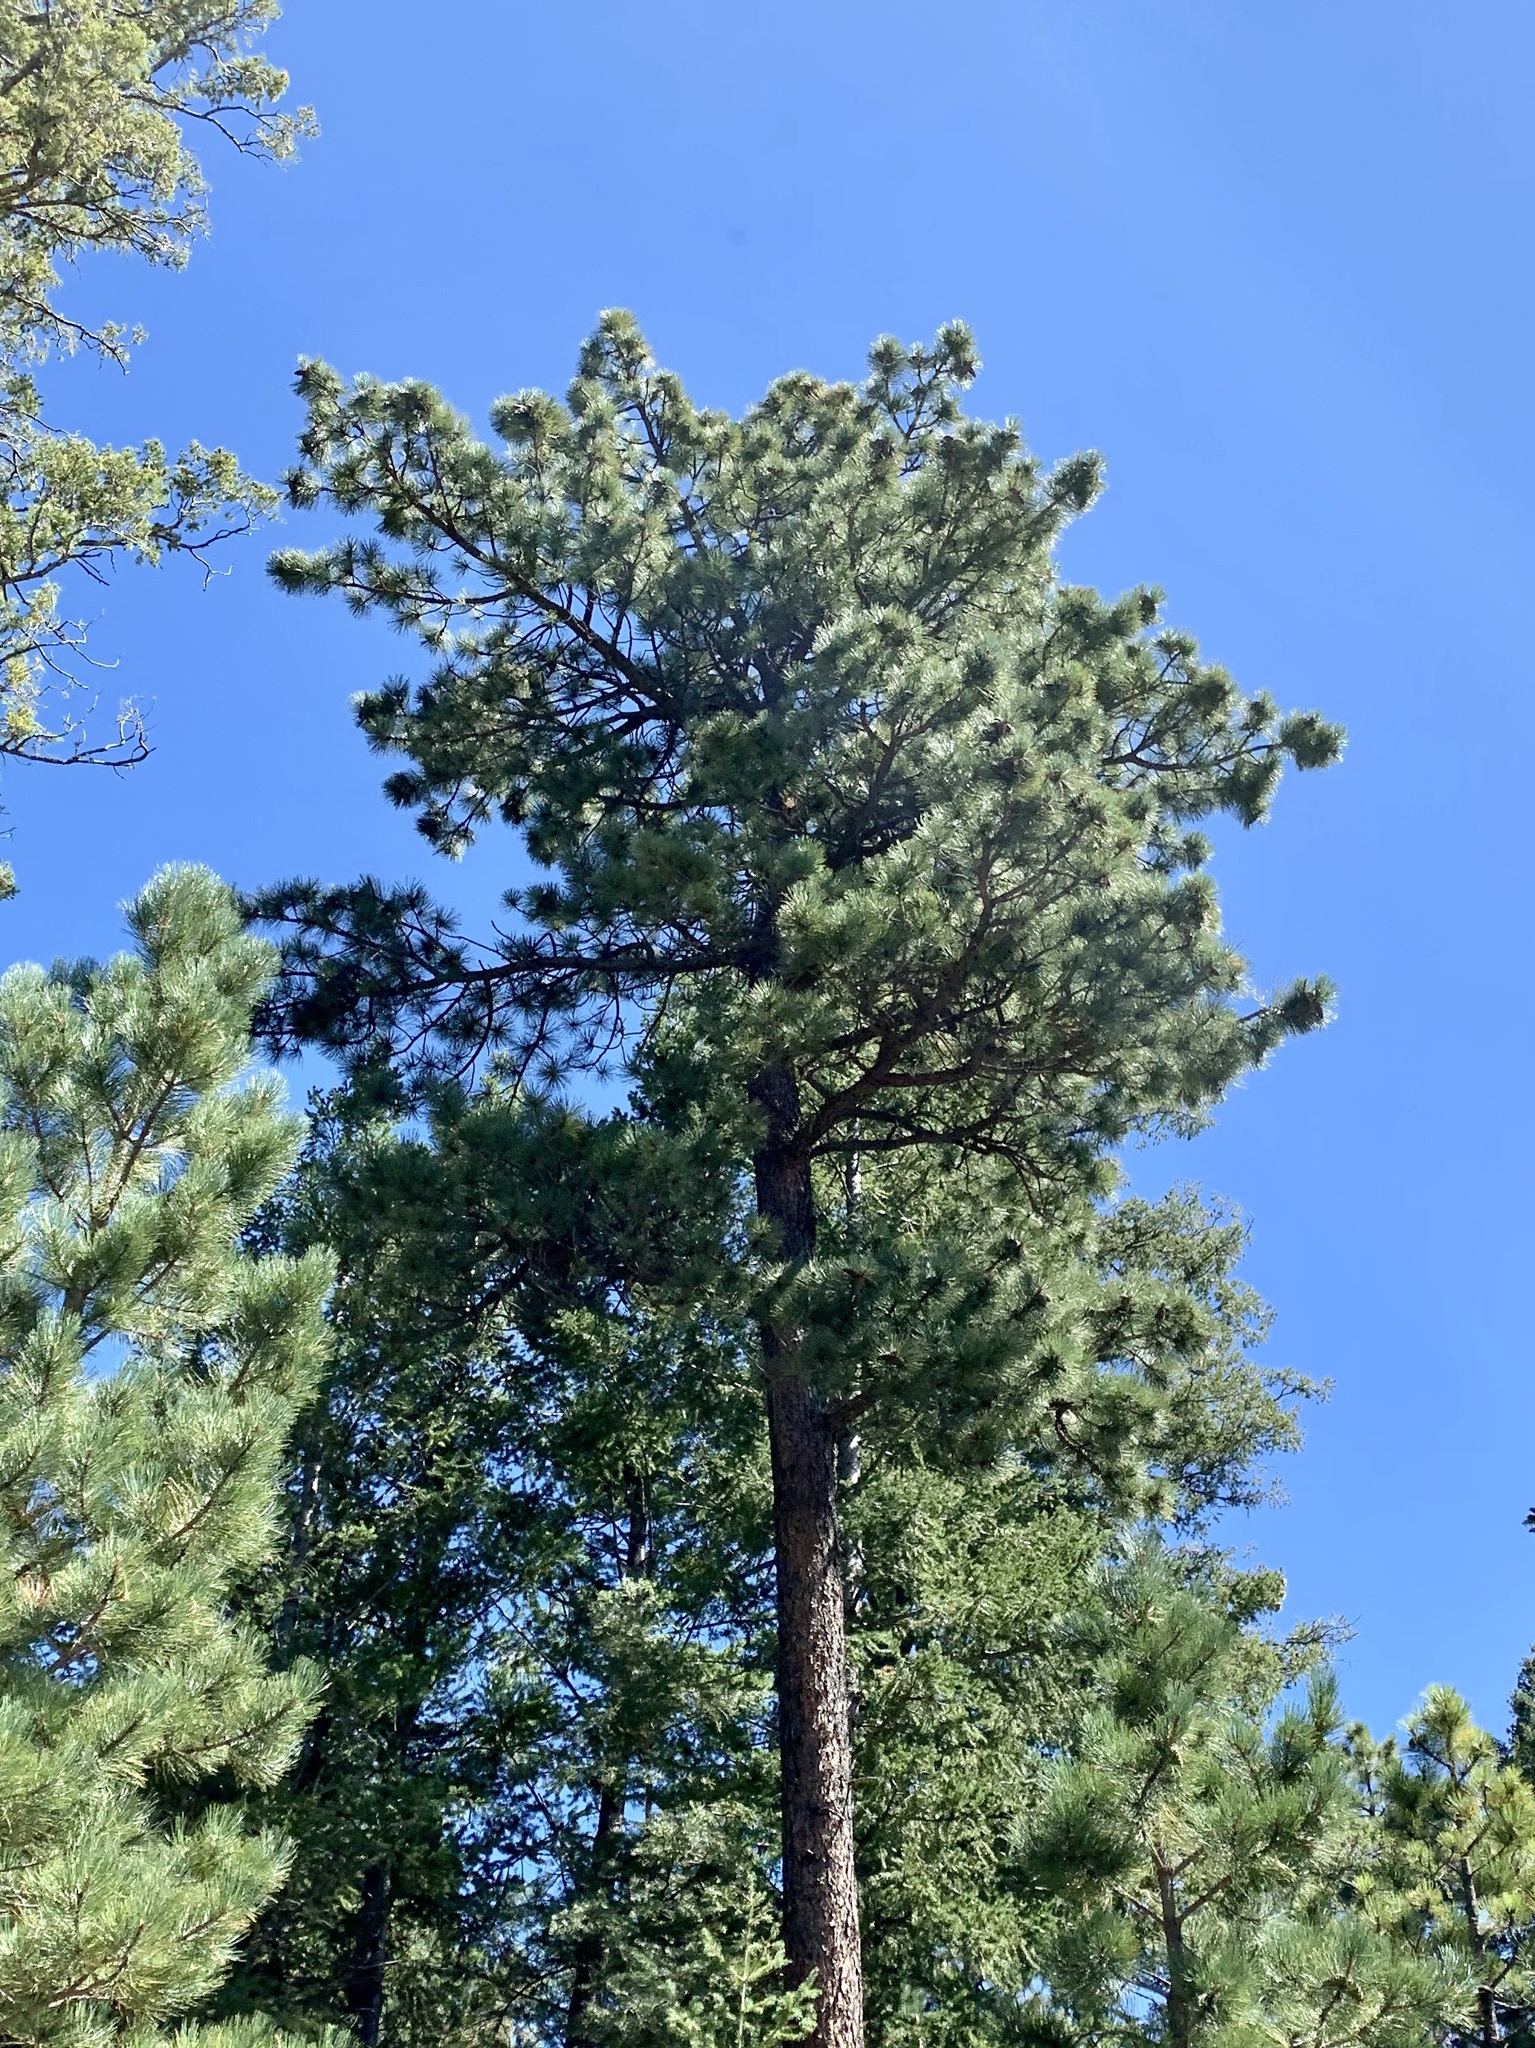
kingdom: Plantae
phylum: Tracheophyta
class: Pinopsida
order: Pinales
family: Pinaceae
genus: Pinus
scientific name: Pinus ponderosa
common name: Western yellow-pine
